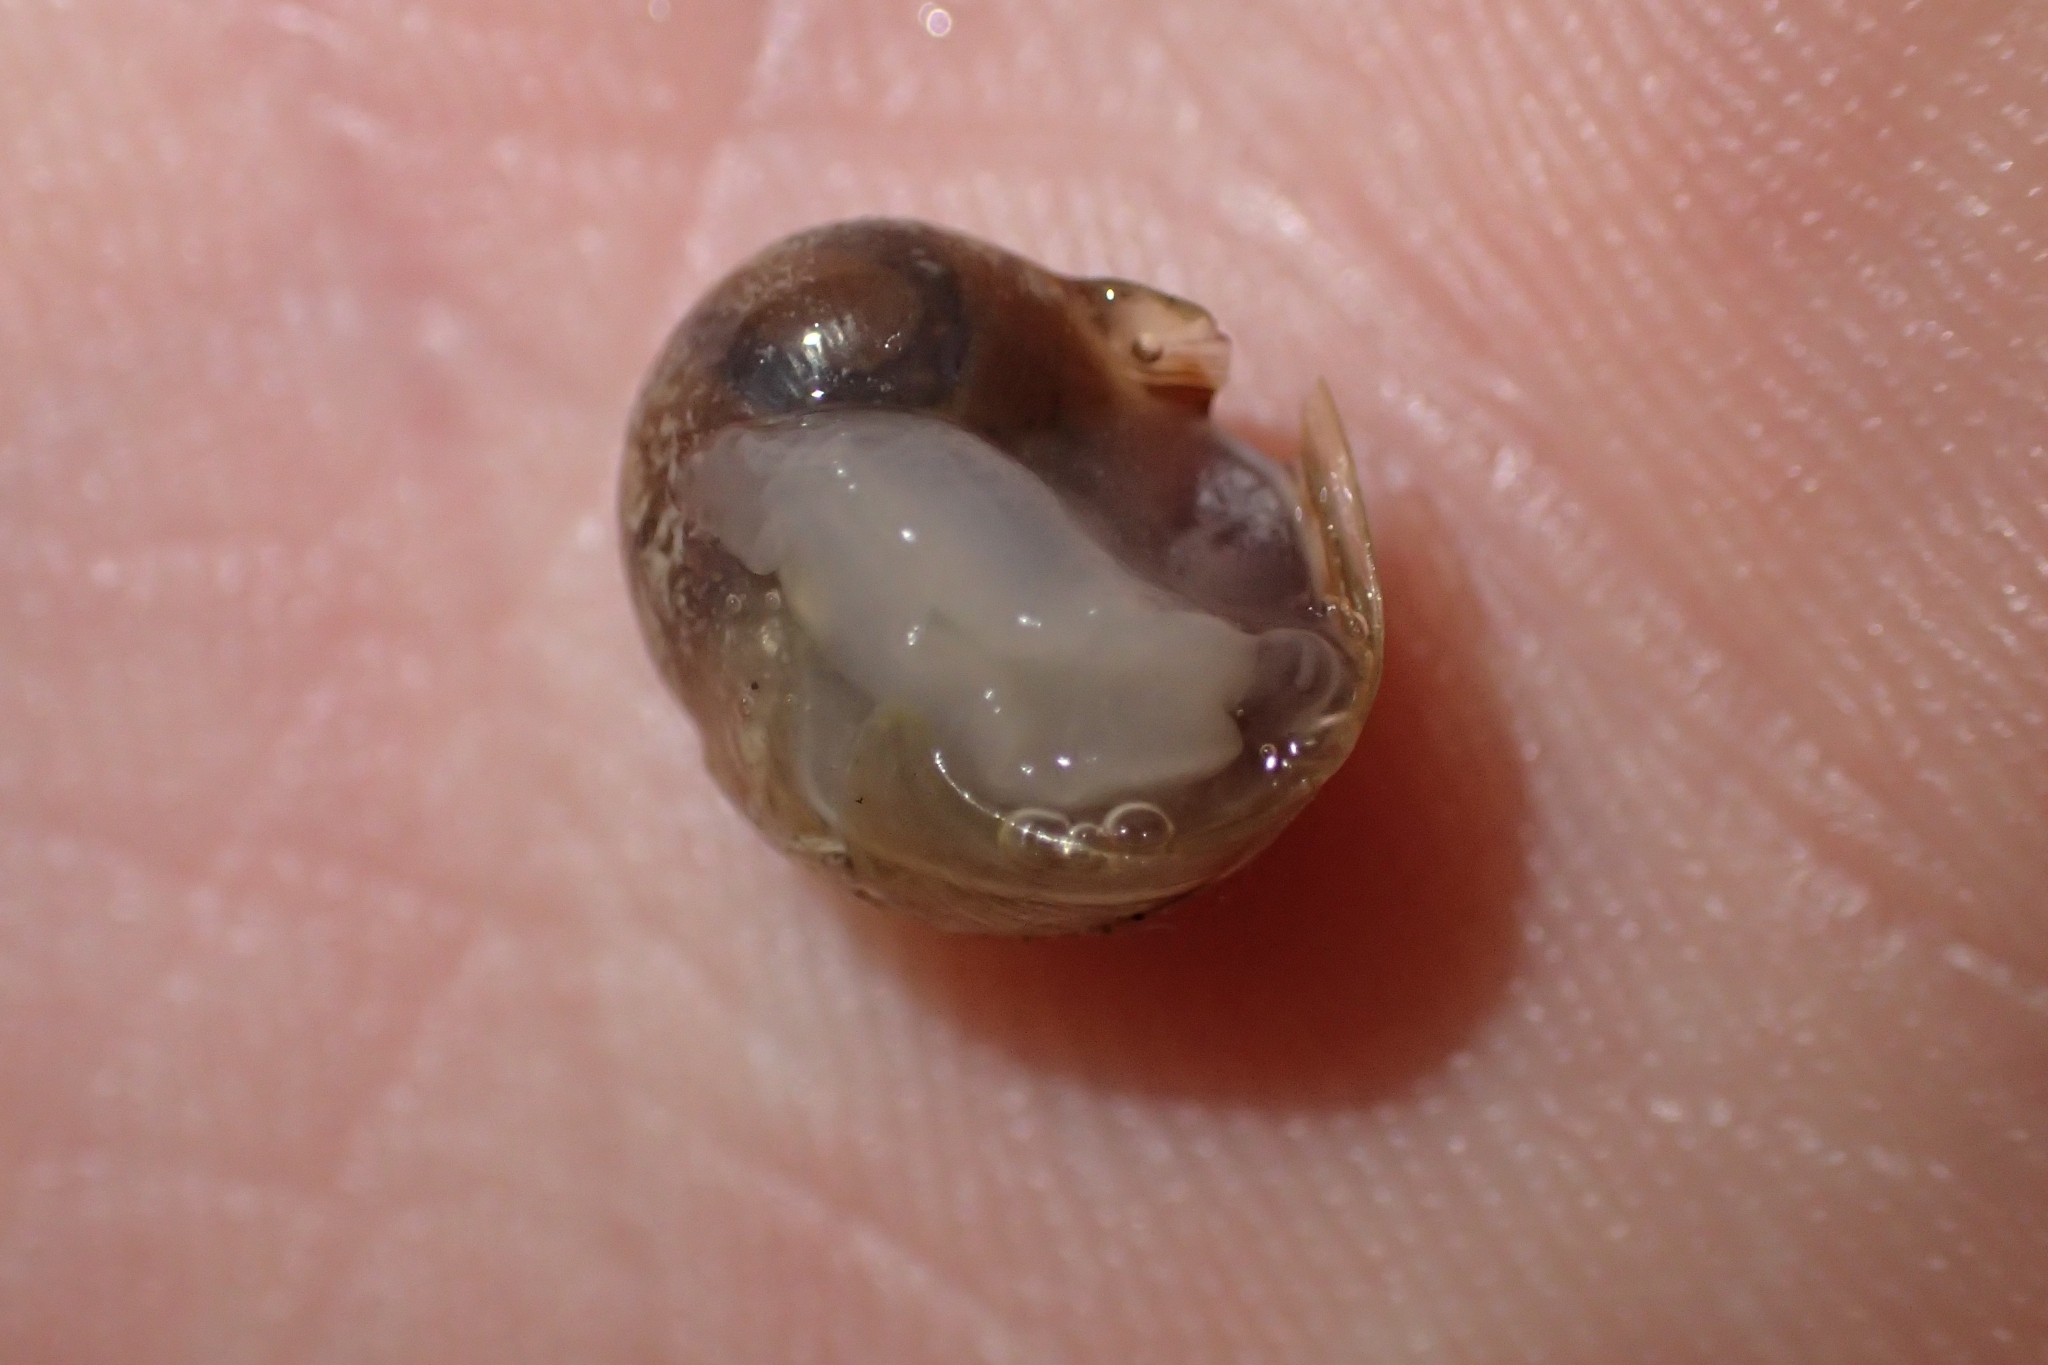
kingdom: Animalia
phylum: Mollusca
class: Gastropoda
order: Stylommatophora
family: Helicidae
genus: Cornu
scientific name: Cornu aspersum
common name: Brown garden snail
